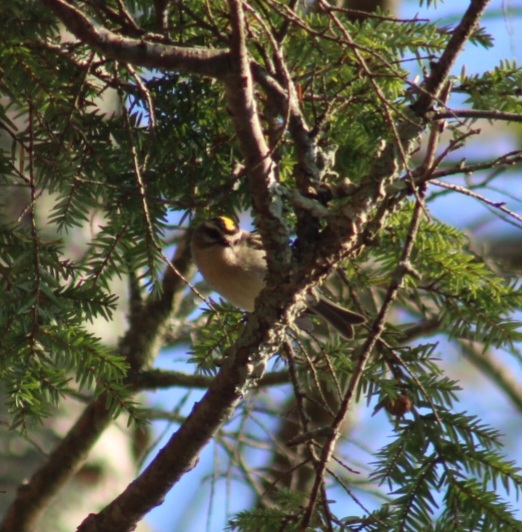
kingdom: Animalia
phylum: Chordata
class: Aves
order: Passeriformes
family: Regulidae
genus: Regulus
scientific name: Regulus satrapa
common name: Golden-crowned kinglet
